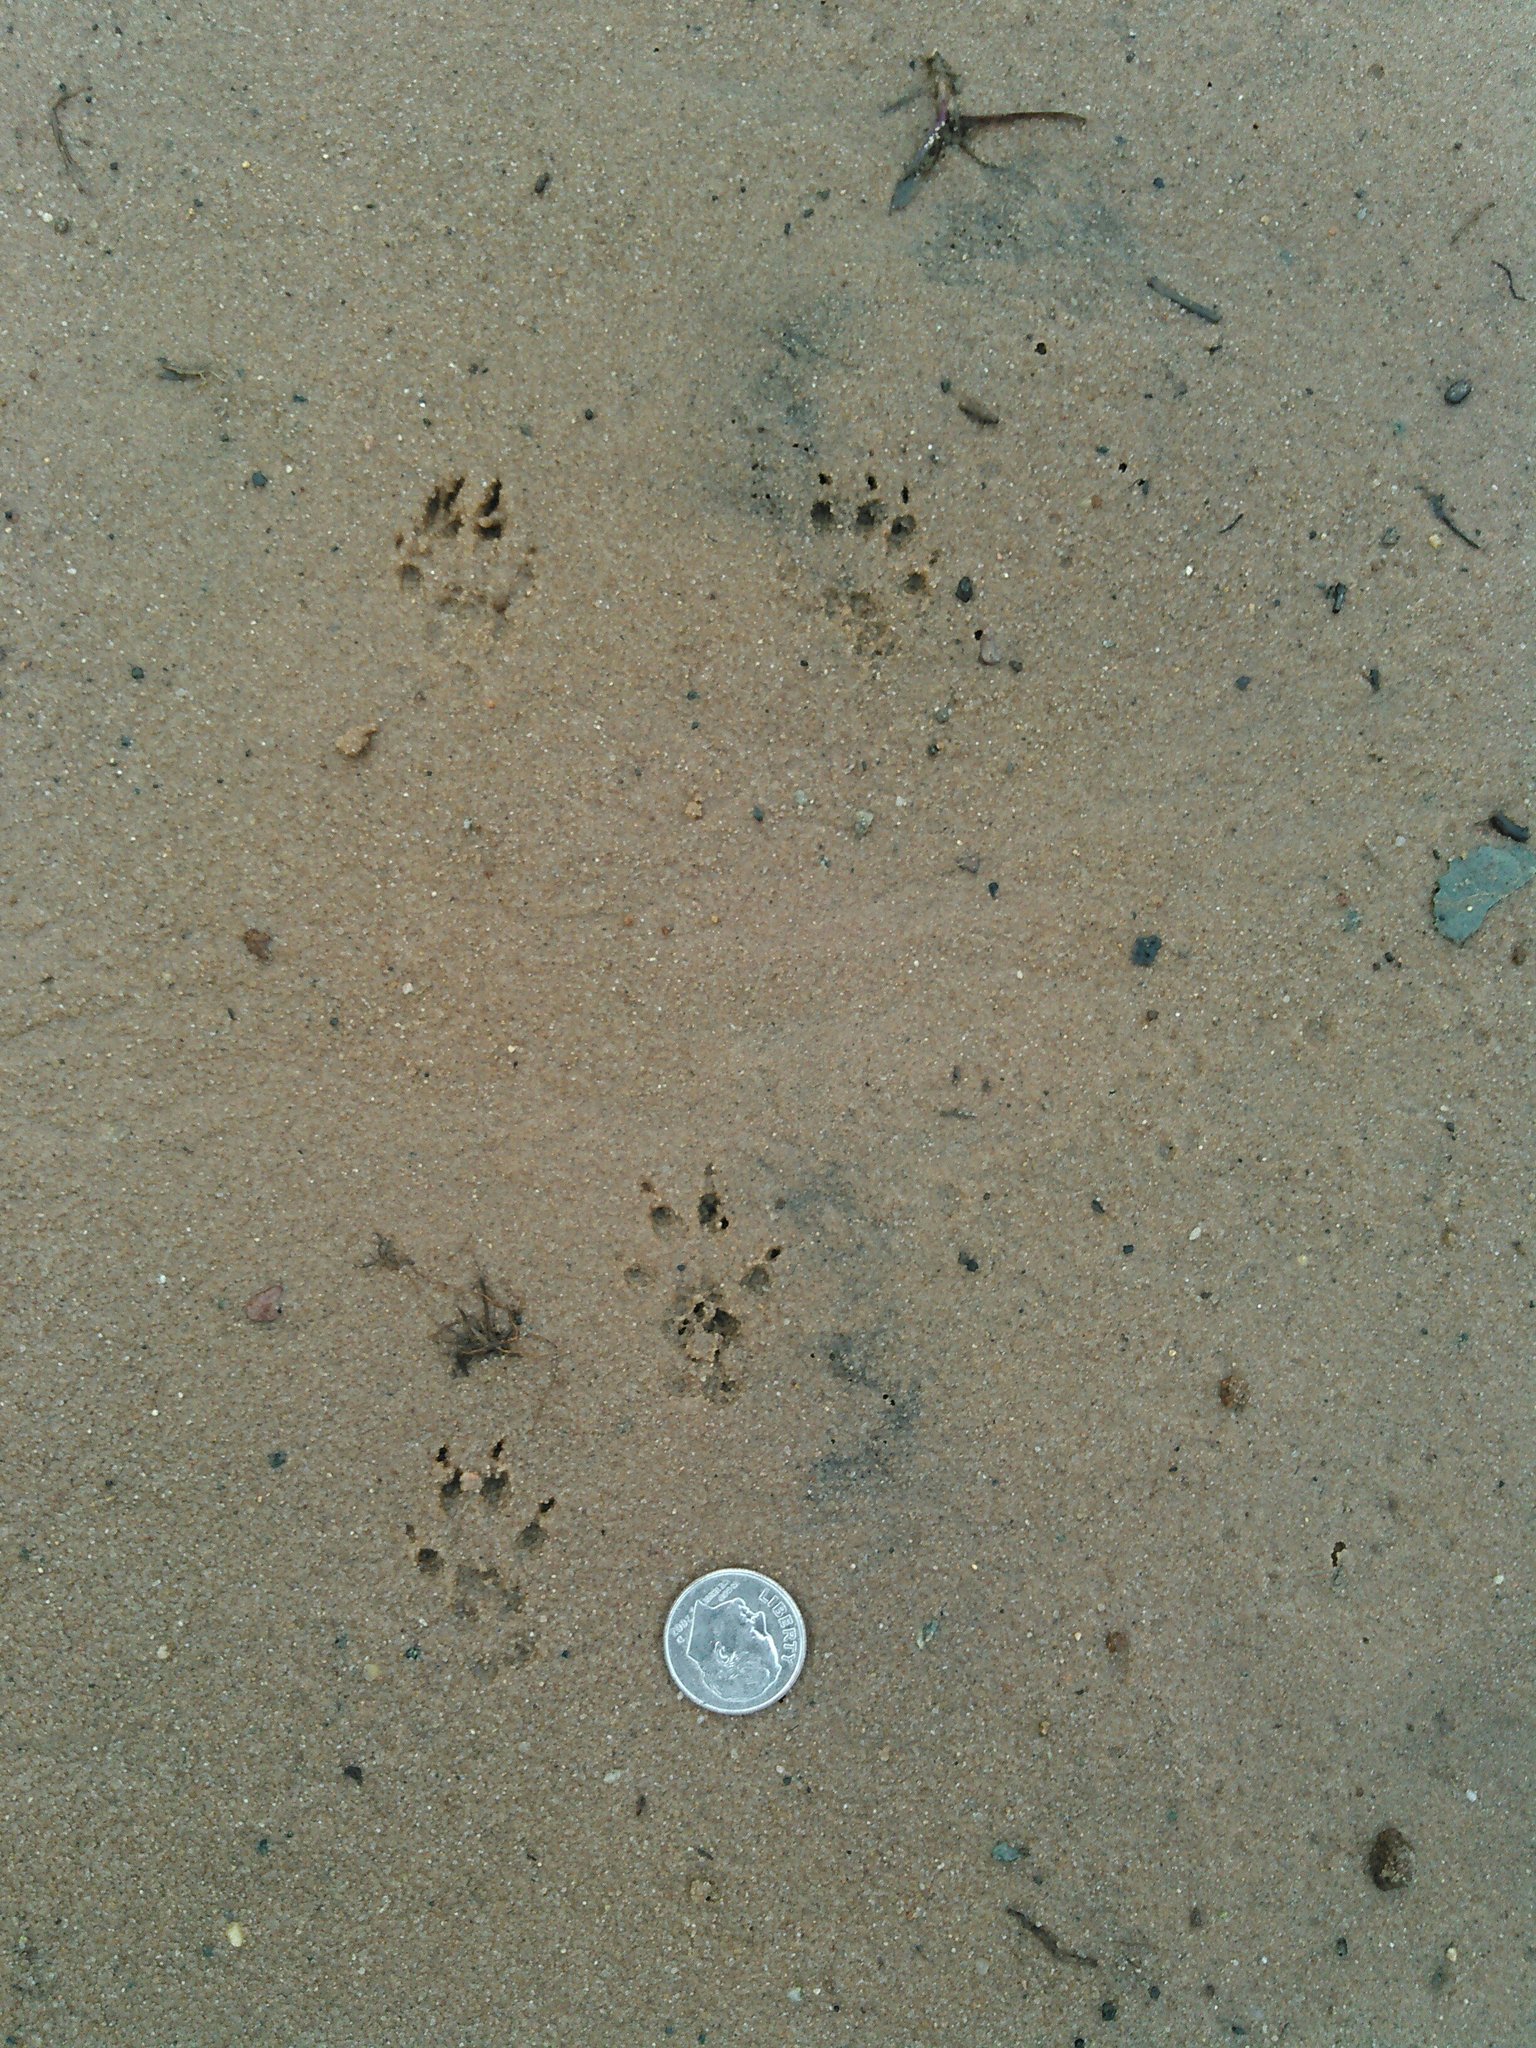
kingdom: Animalia
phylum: Chordata
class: Mammalia
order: Rodentia
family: Sciuridae
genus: Tamiasciurus
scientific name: Tamiasciurus hudsonicus
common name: Red squirrel
